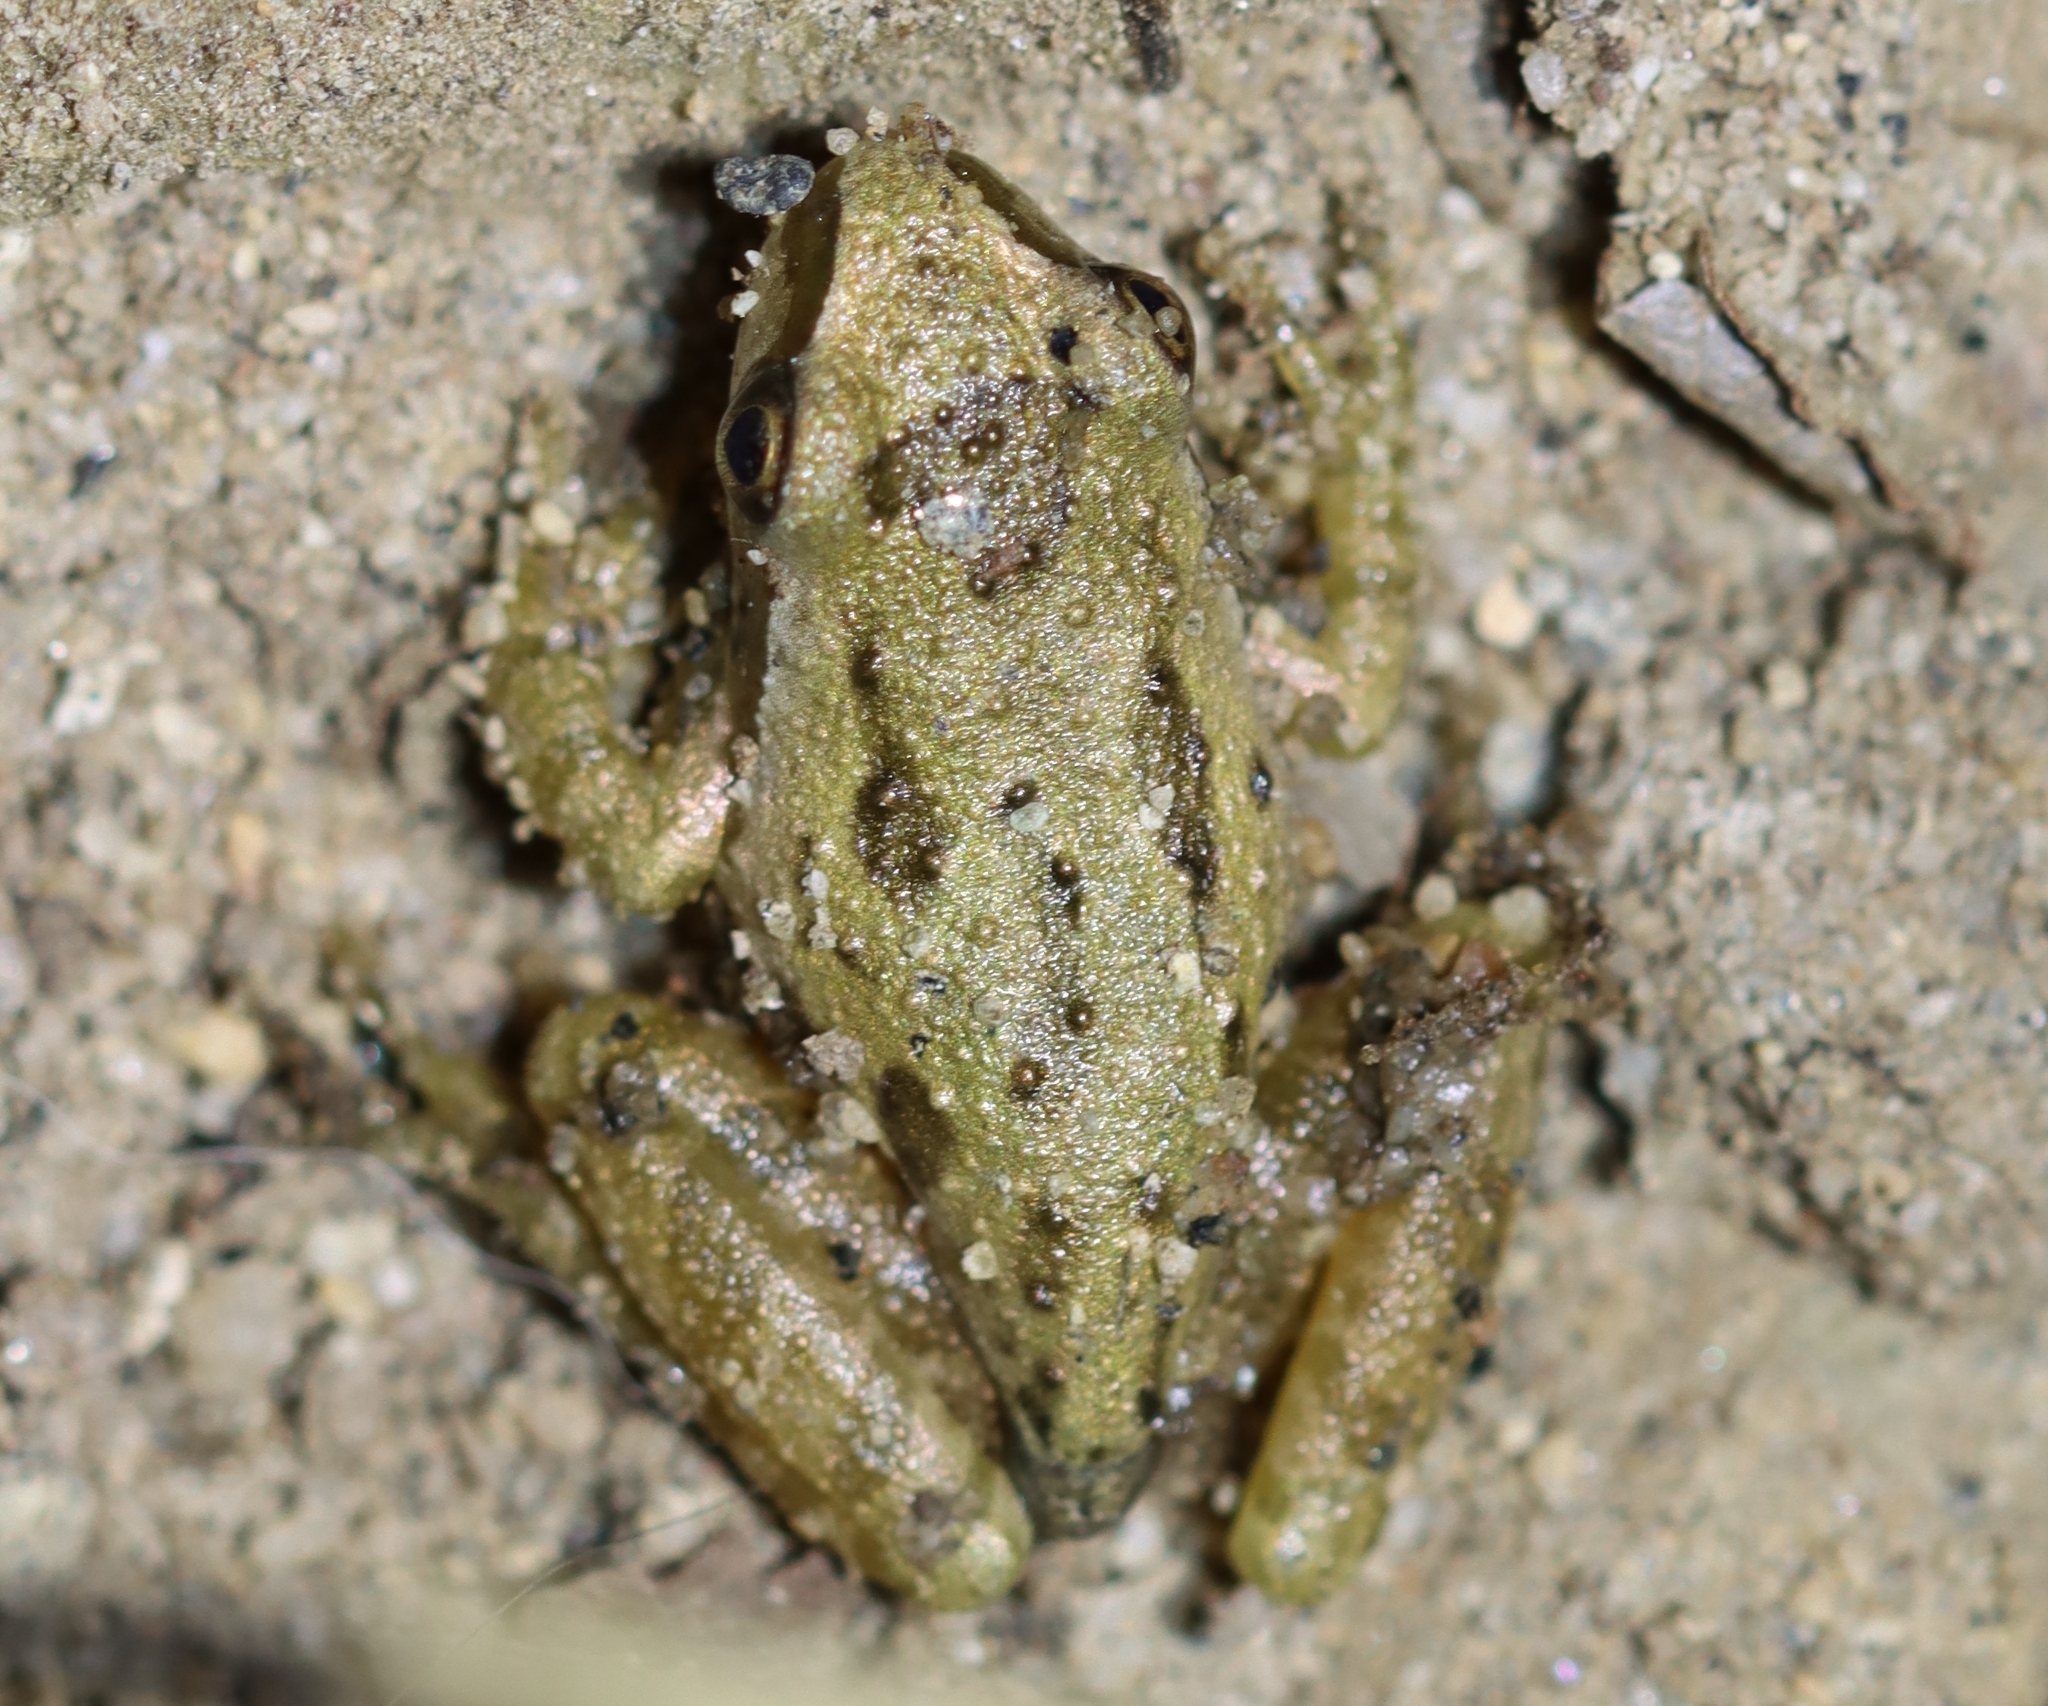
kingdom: Animalia
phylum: Chordata
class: Amphibia
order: Anura
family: Hylidae
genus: Pseudacris
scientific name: Pseudacris regilla
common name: Pacific chorus frog
